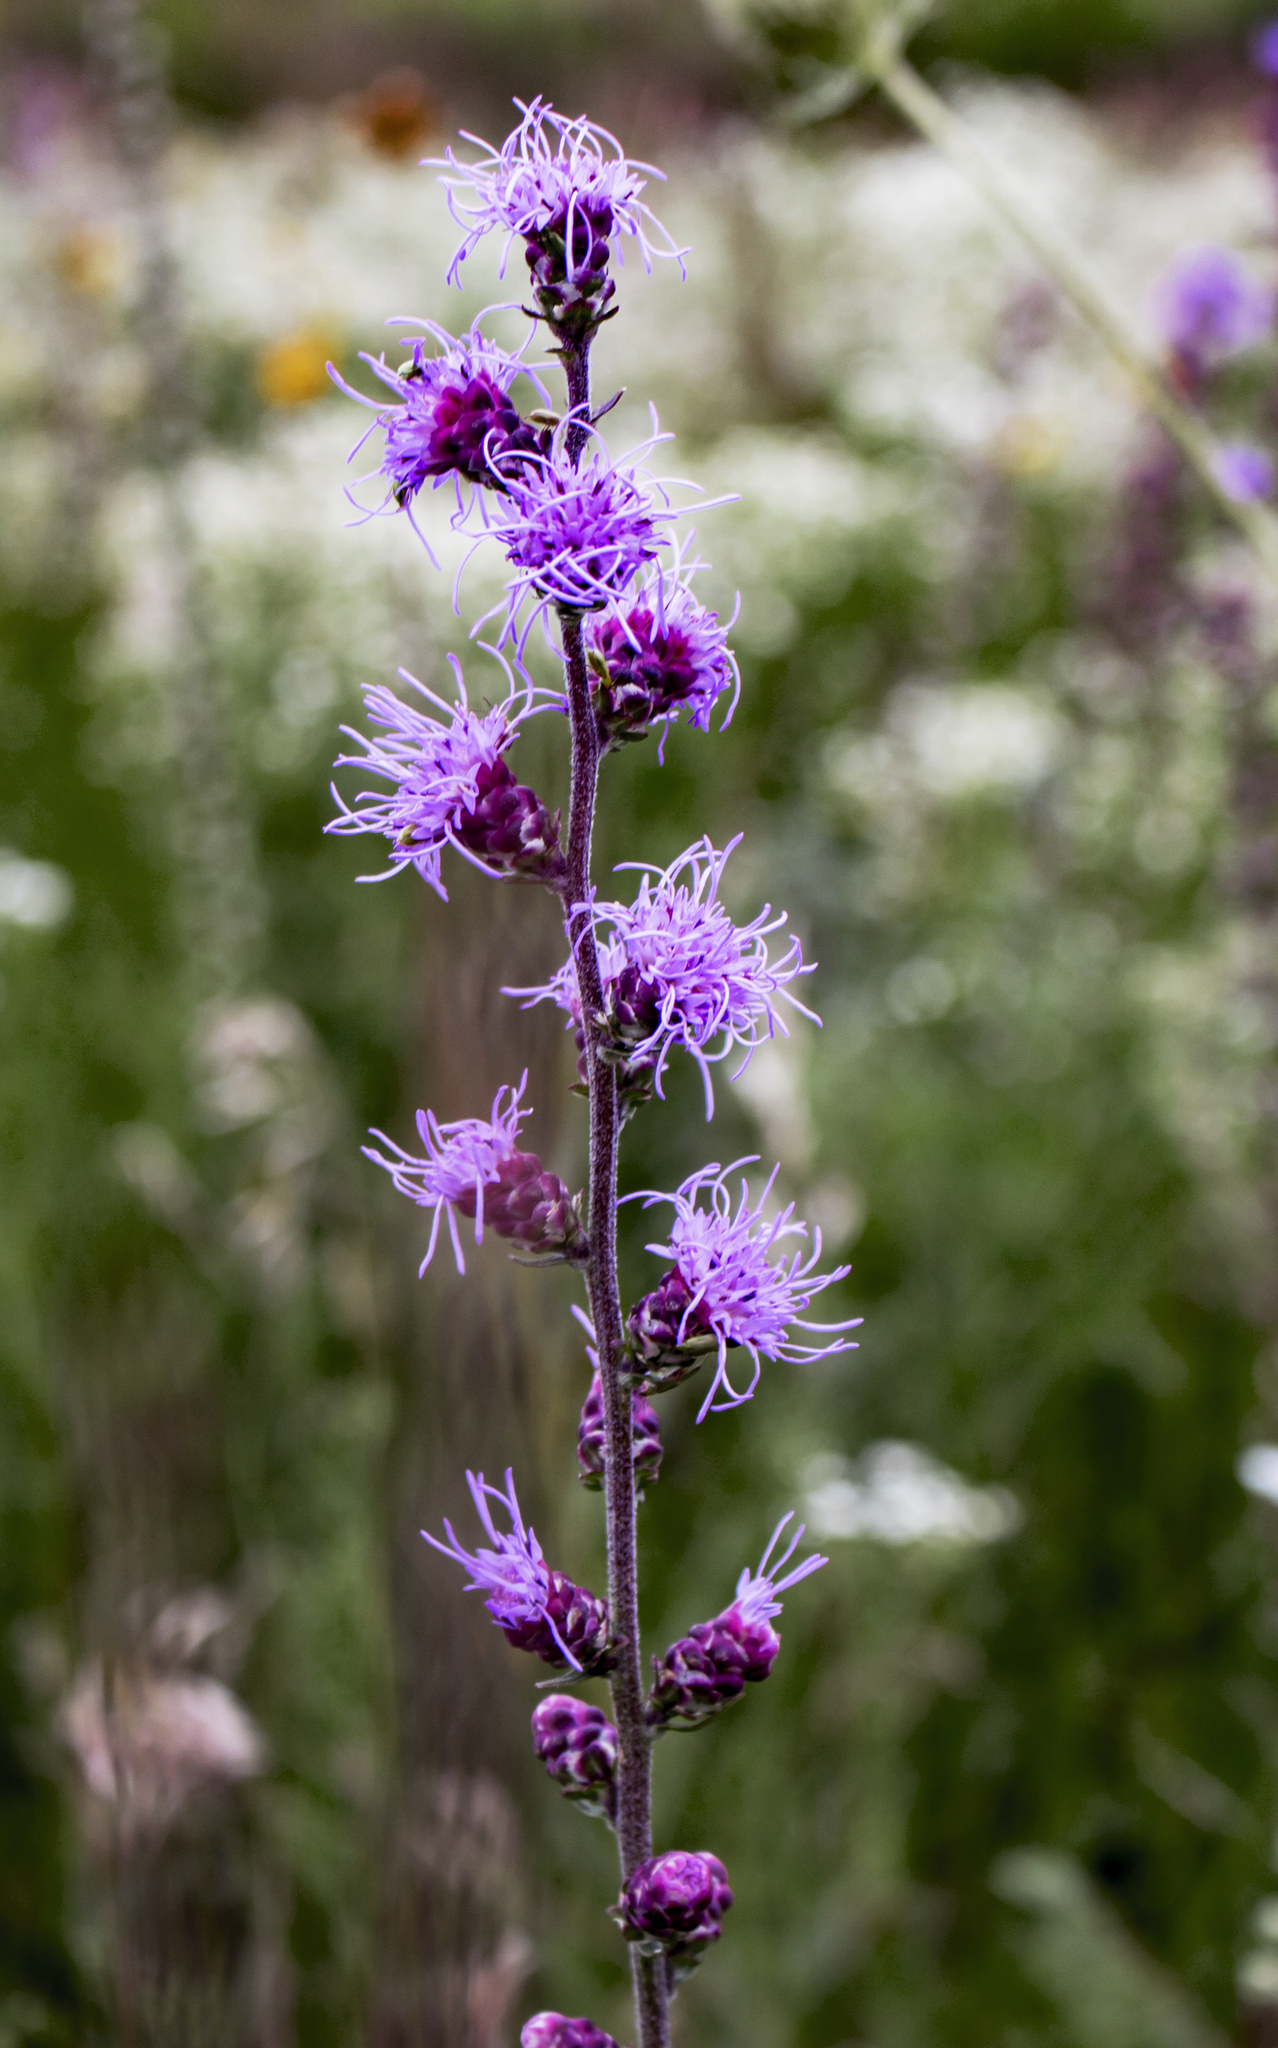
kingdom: Plantae
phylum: Tracheophyta
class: Magnoliopsida
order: Asterales
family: Asteraceae
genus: Liatris
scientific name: Liatris aspera
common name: Lacerate blazing-star
